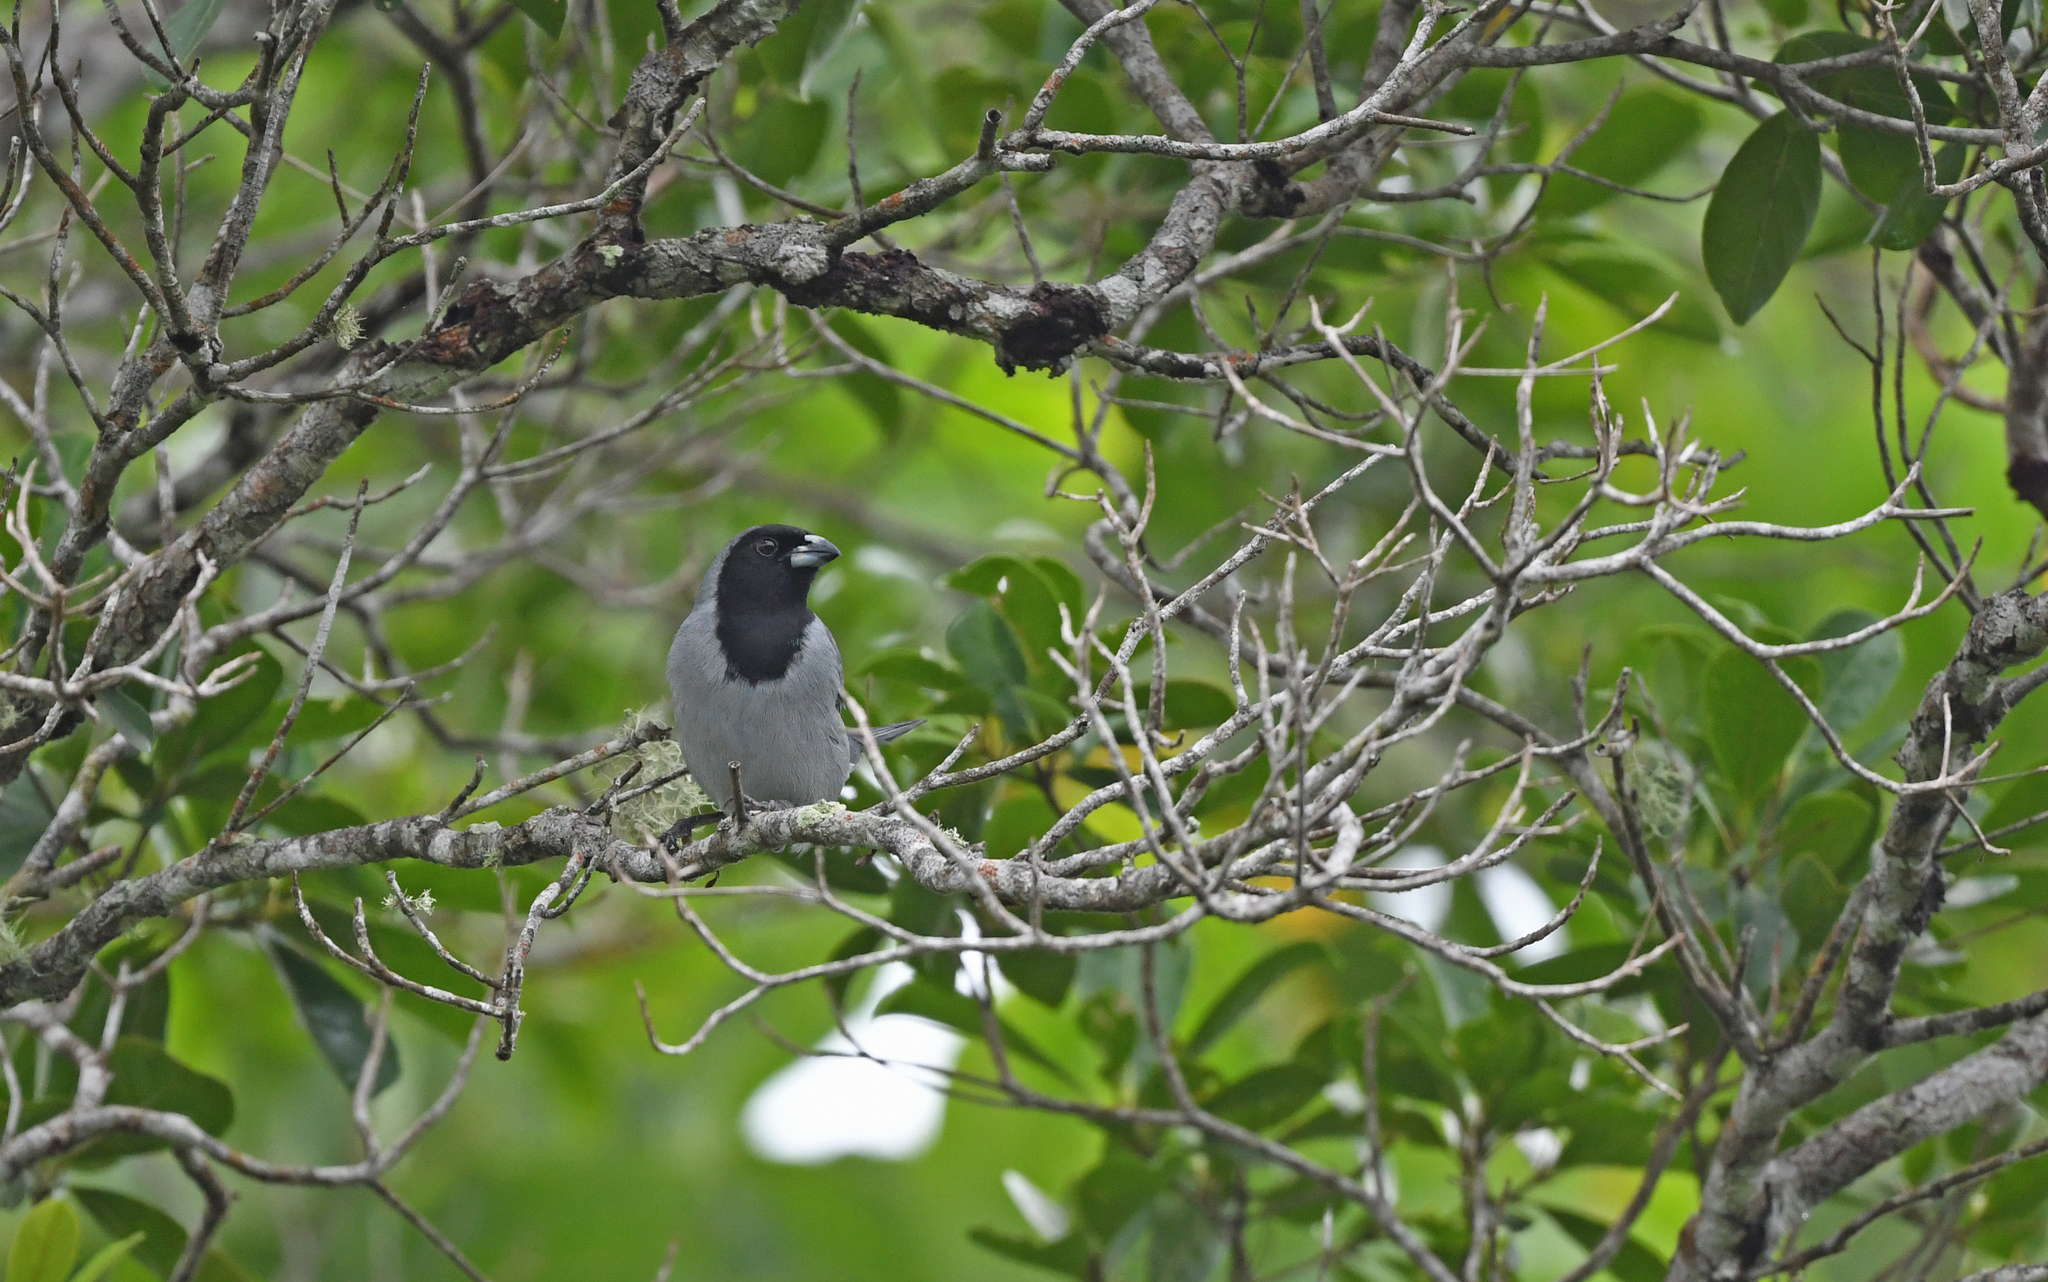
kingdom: Animalia
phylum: Chordata
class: Aves
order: Passeriformes
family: Thraupidae
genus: Schistochlamys
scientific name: Schistochlamys melanopis
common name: Black-faced tanager
